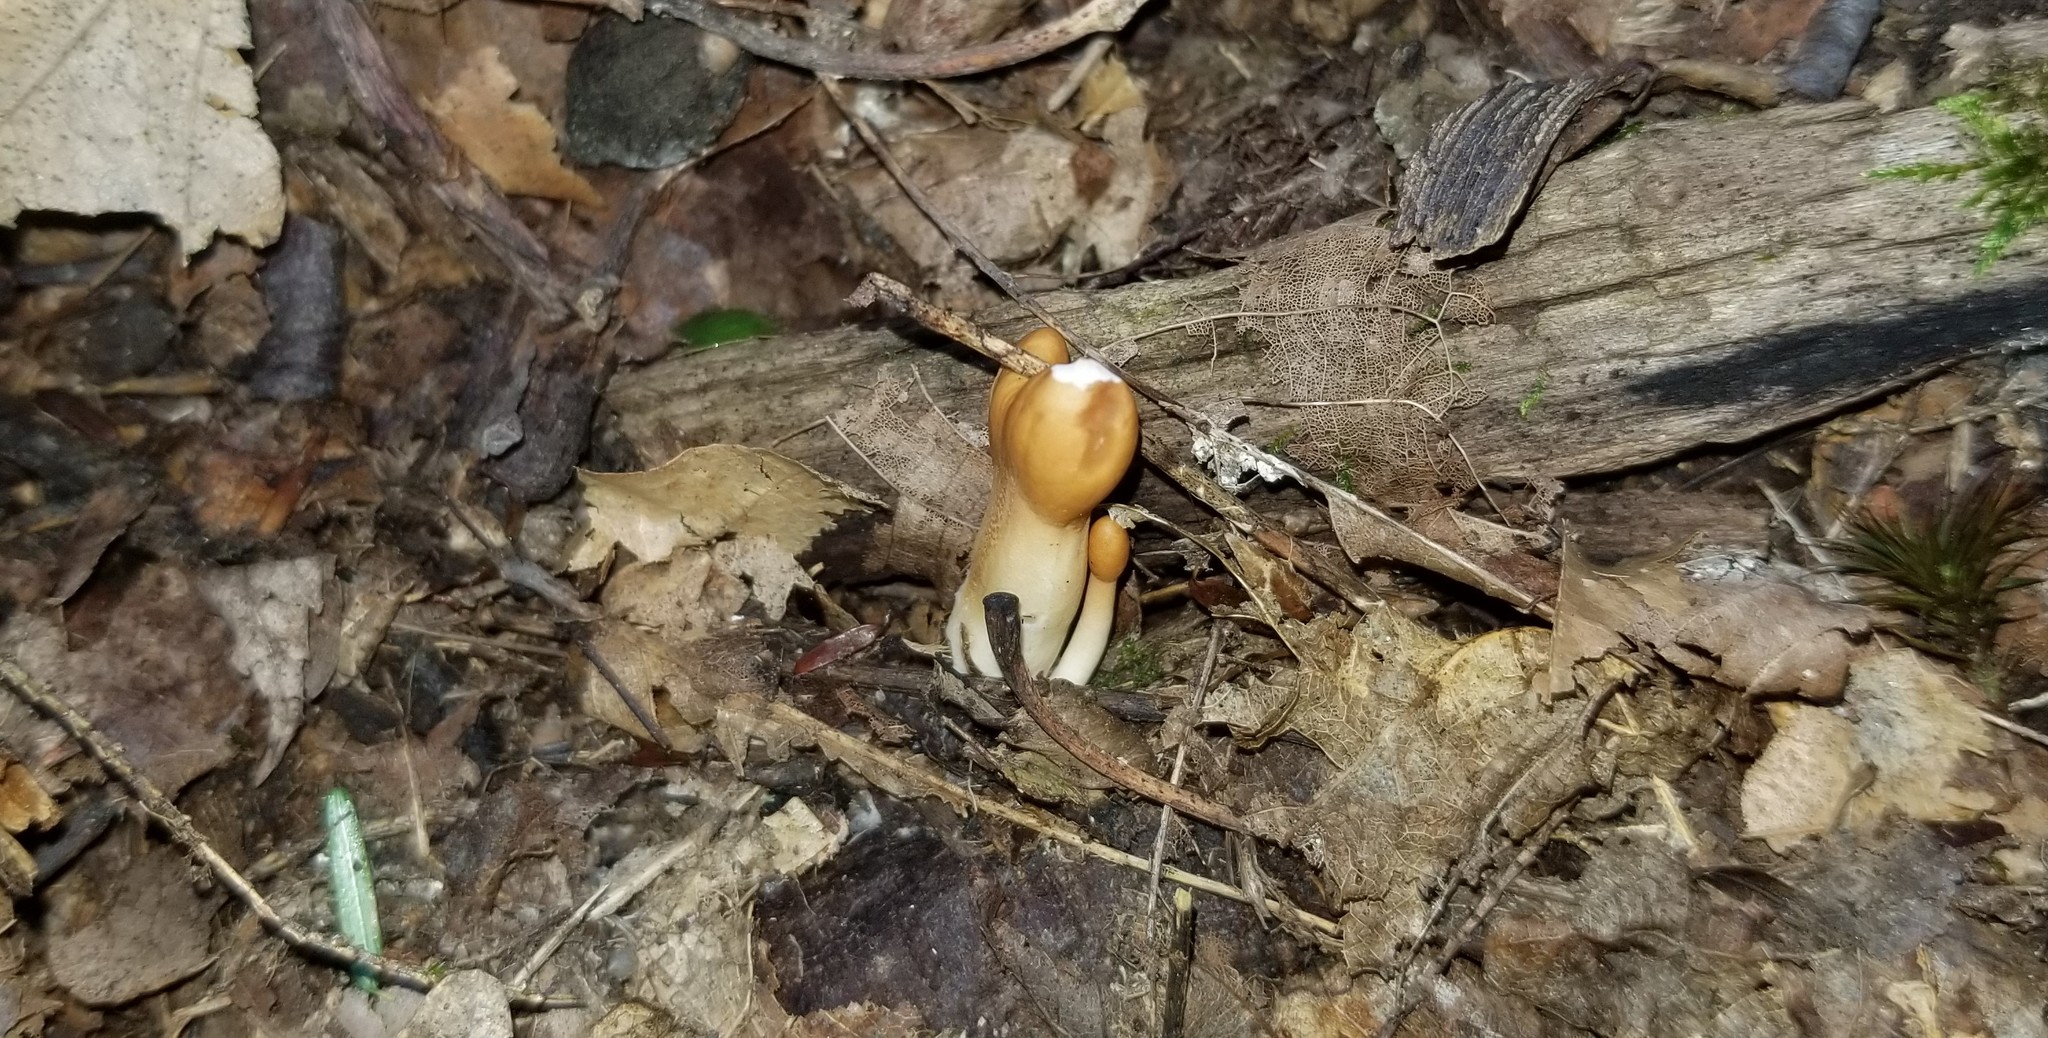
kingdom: Fungi
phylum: Ascomycota
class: Sordariomycetes
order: Hypocreales
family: Hypocreaceae
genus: Trichoderma
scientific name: Trichoderma alutaceum
